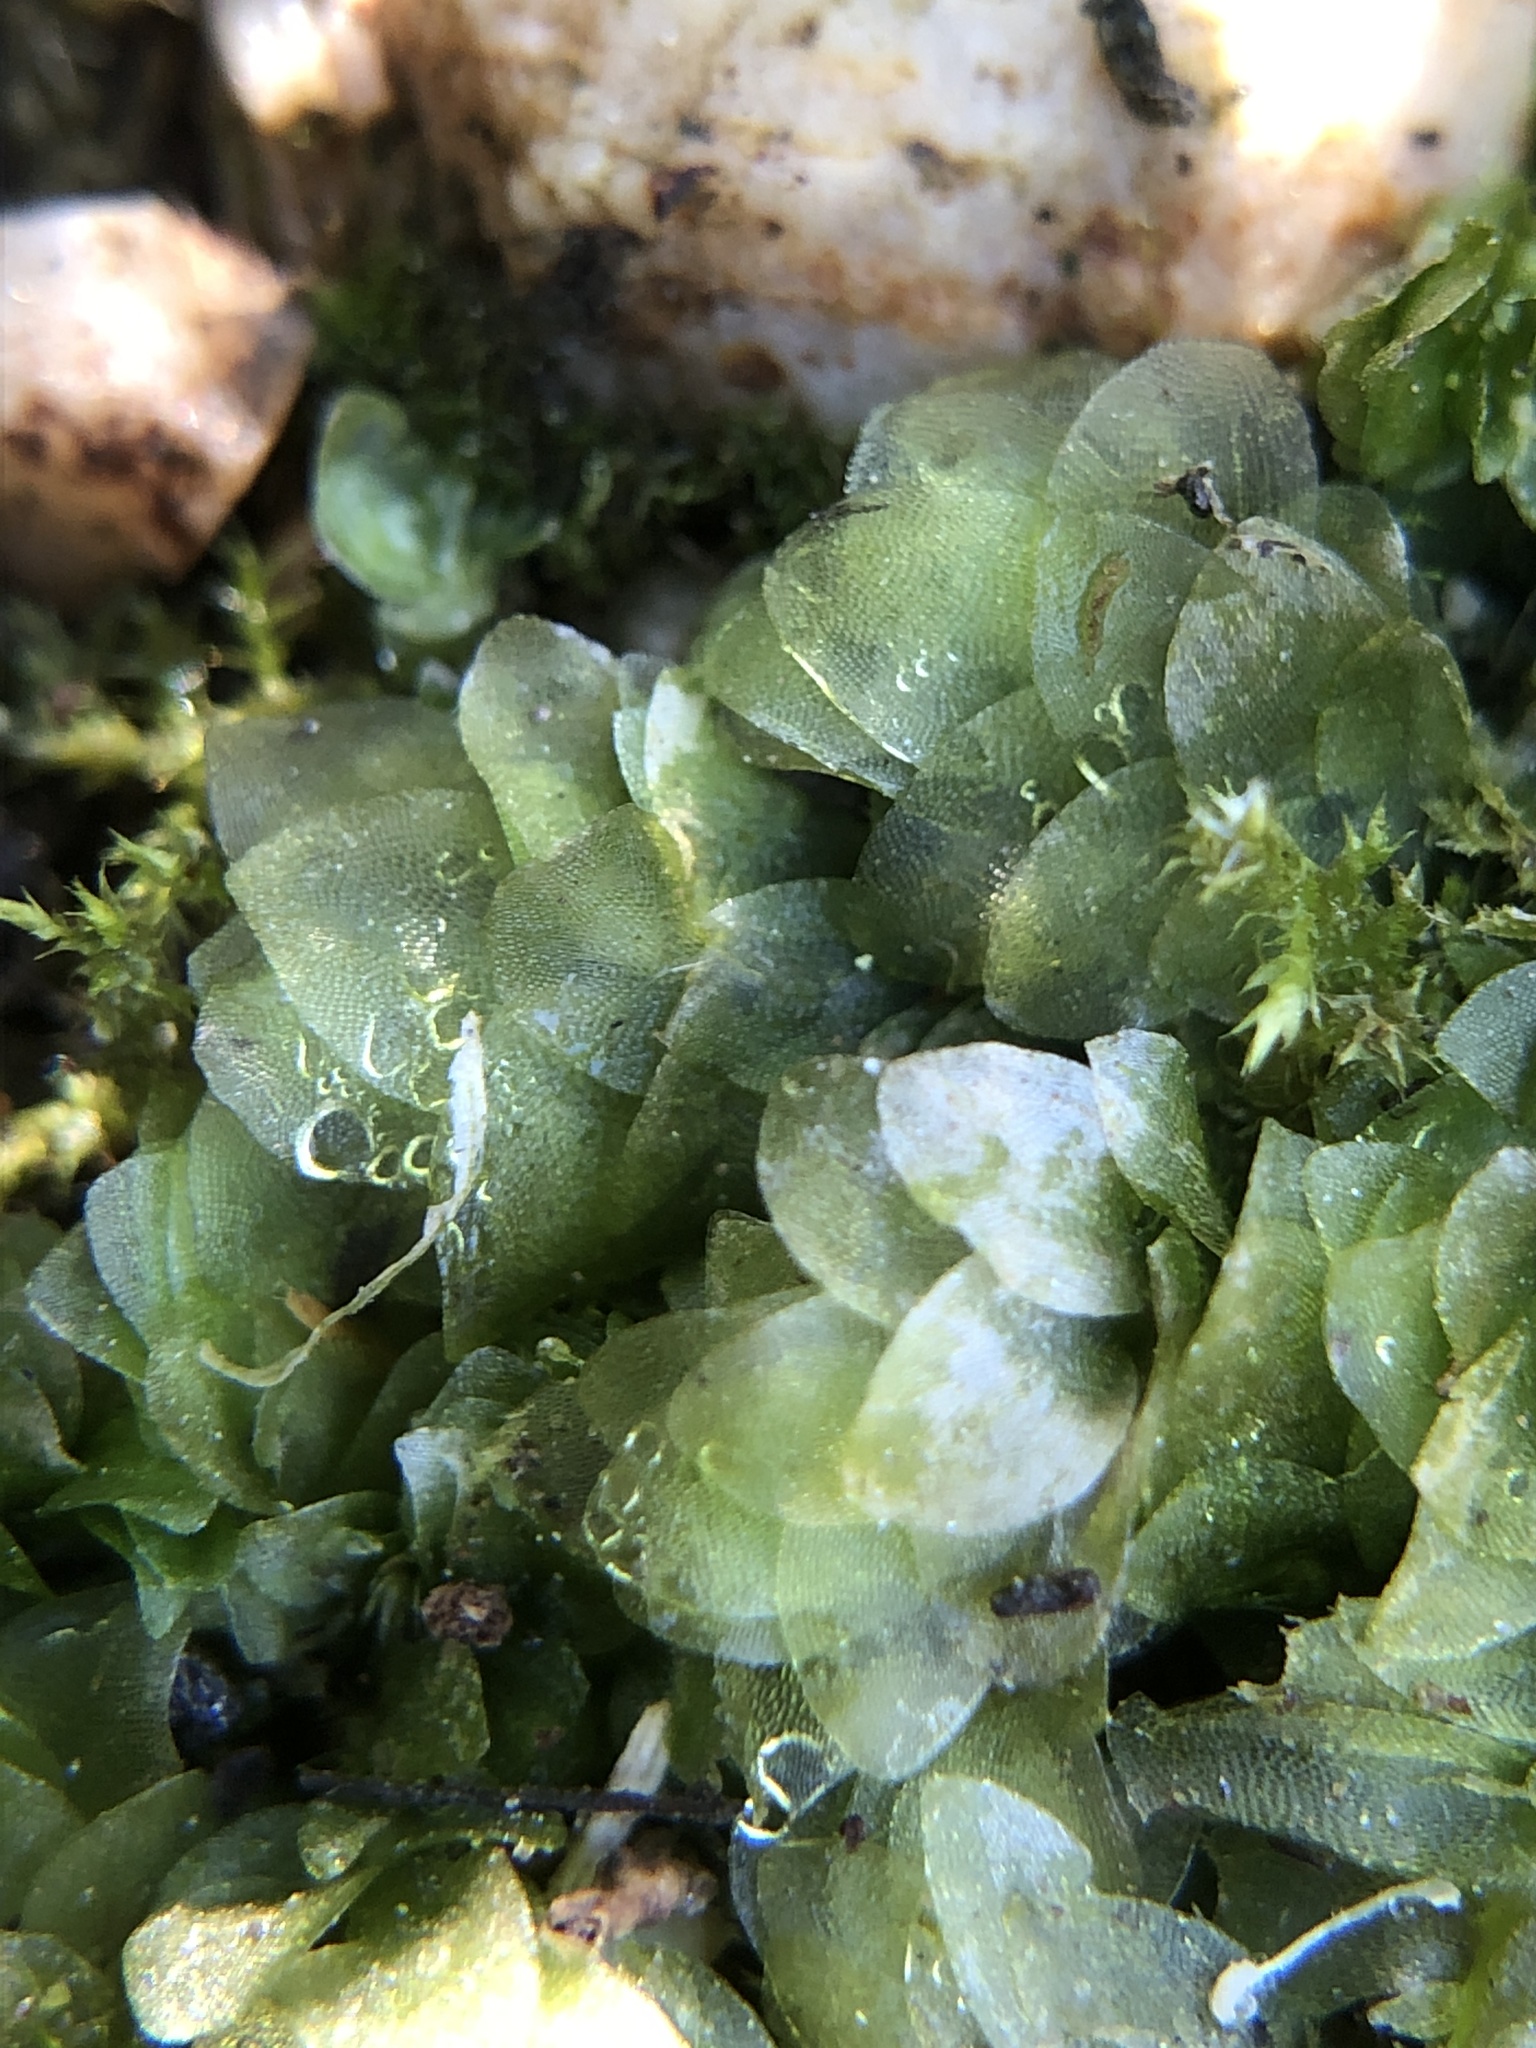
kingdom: Plantae
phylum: Bryophyta
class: Bryopsida
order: Hookeriales
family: Hookeriaceae
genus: Hookeria
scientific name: Hookeria lucens
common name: Shining hookeria
